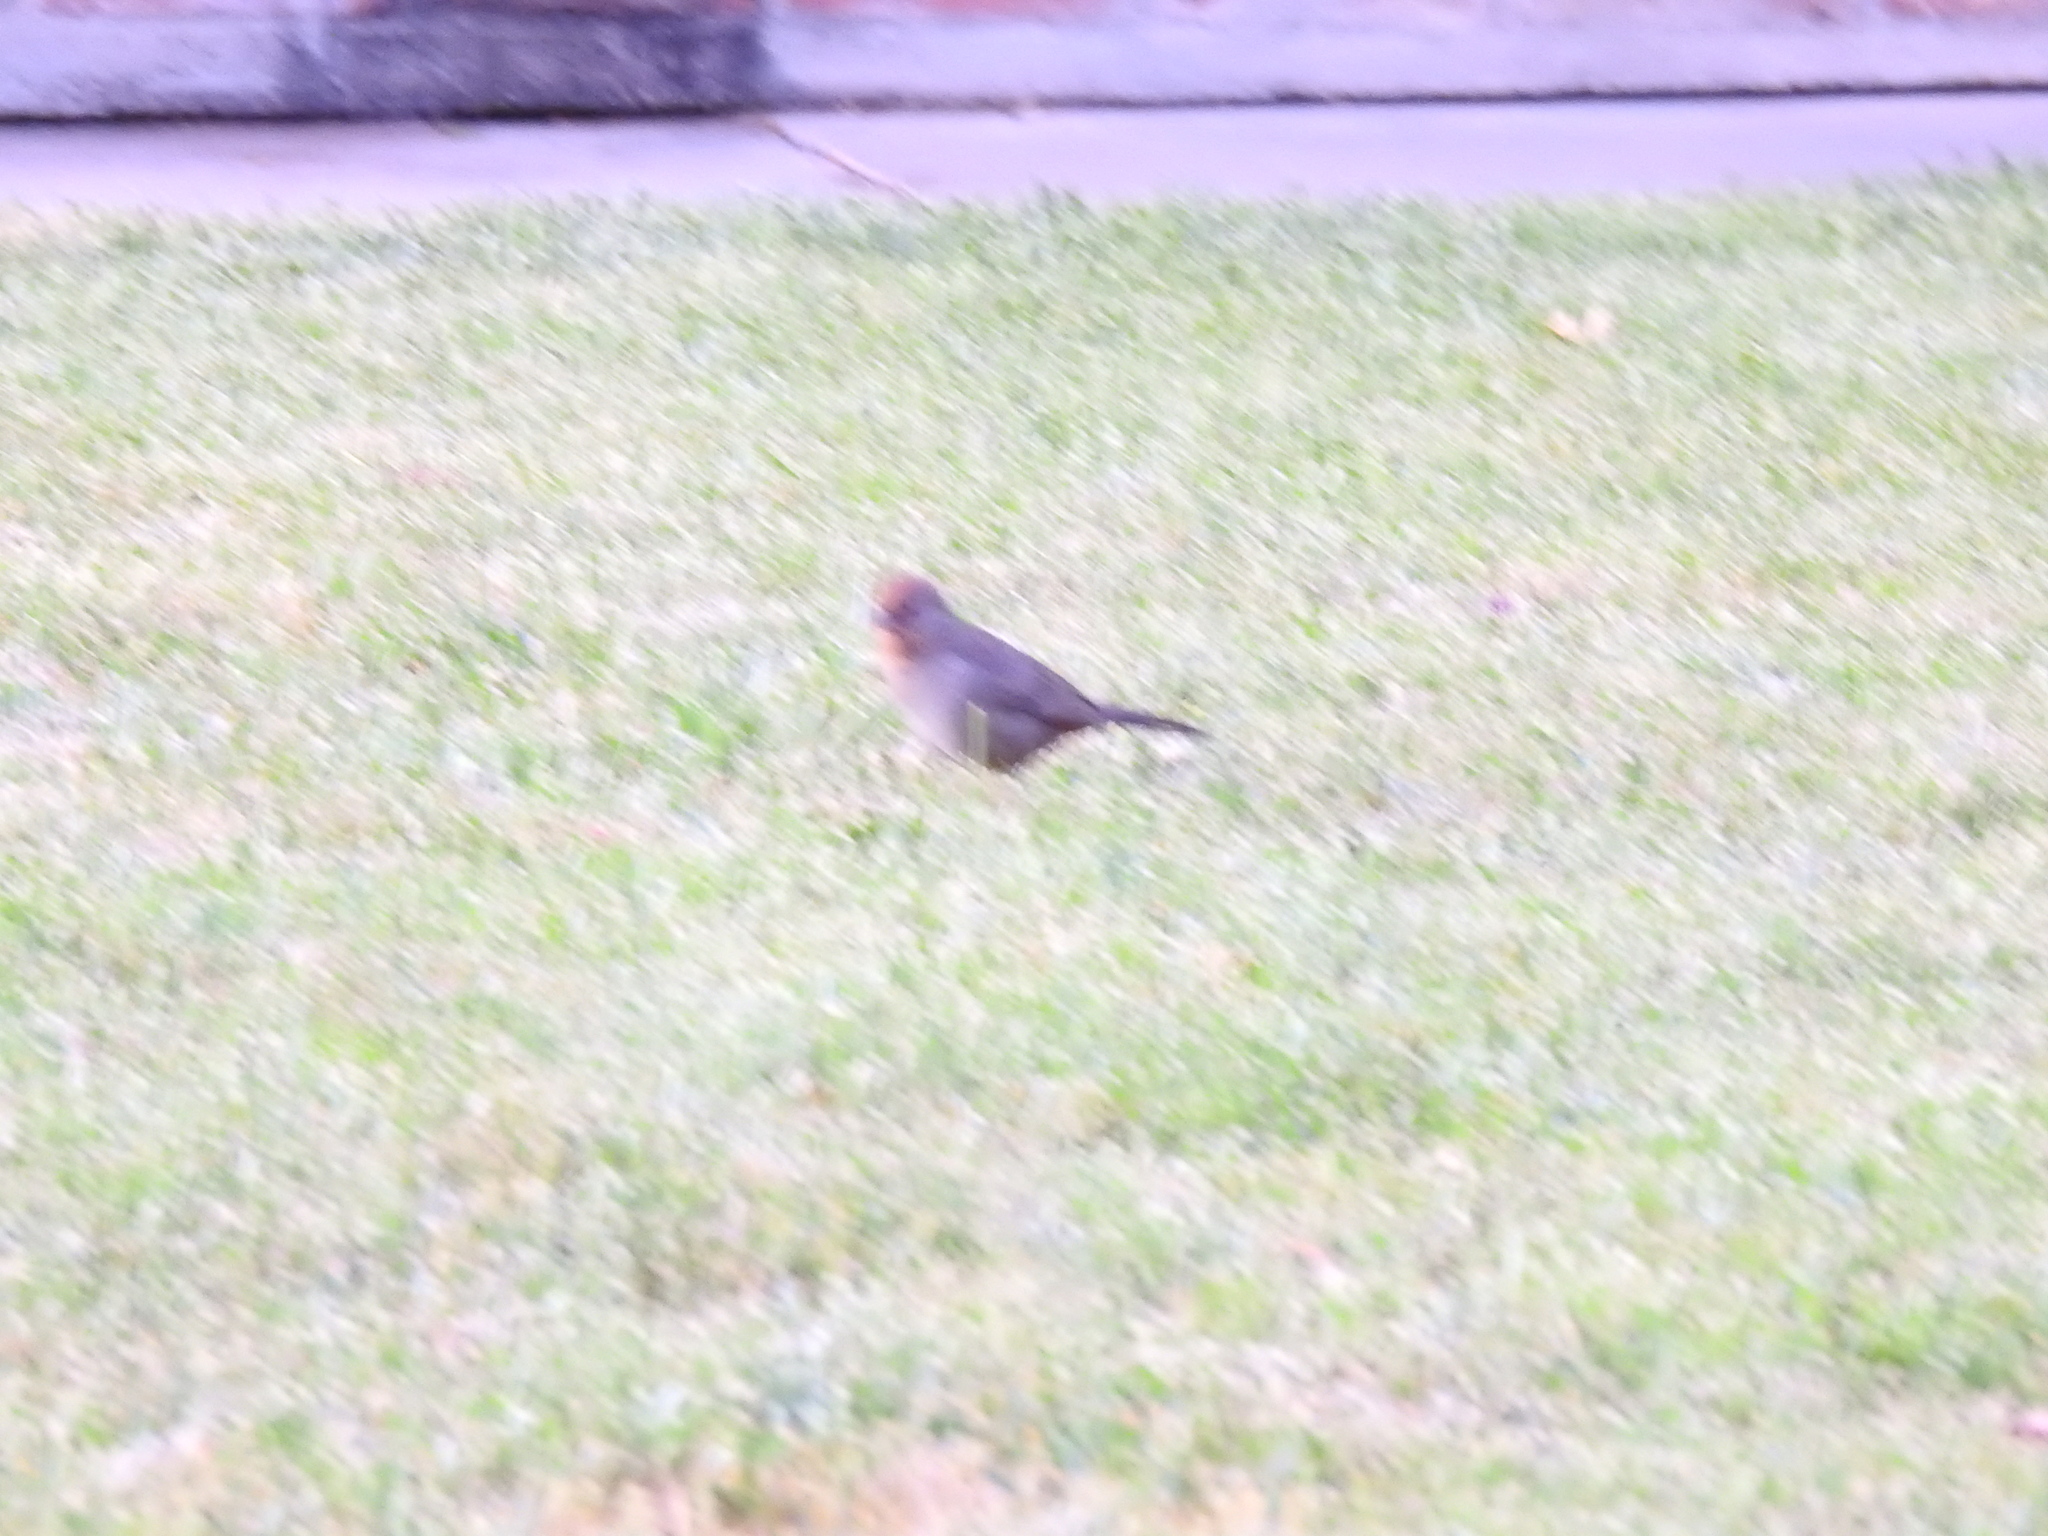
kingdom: Animalia
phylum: Chordata
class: Aves
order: Passeriformes
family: Passerellidae
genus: Melozone
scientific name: Melozone crissalis
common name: California towhee
